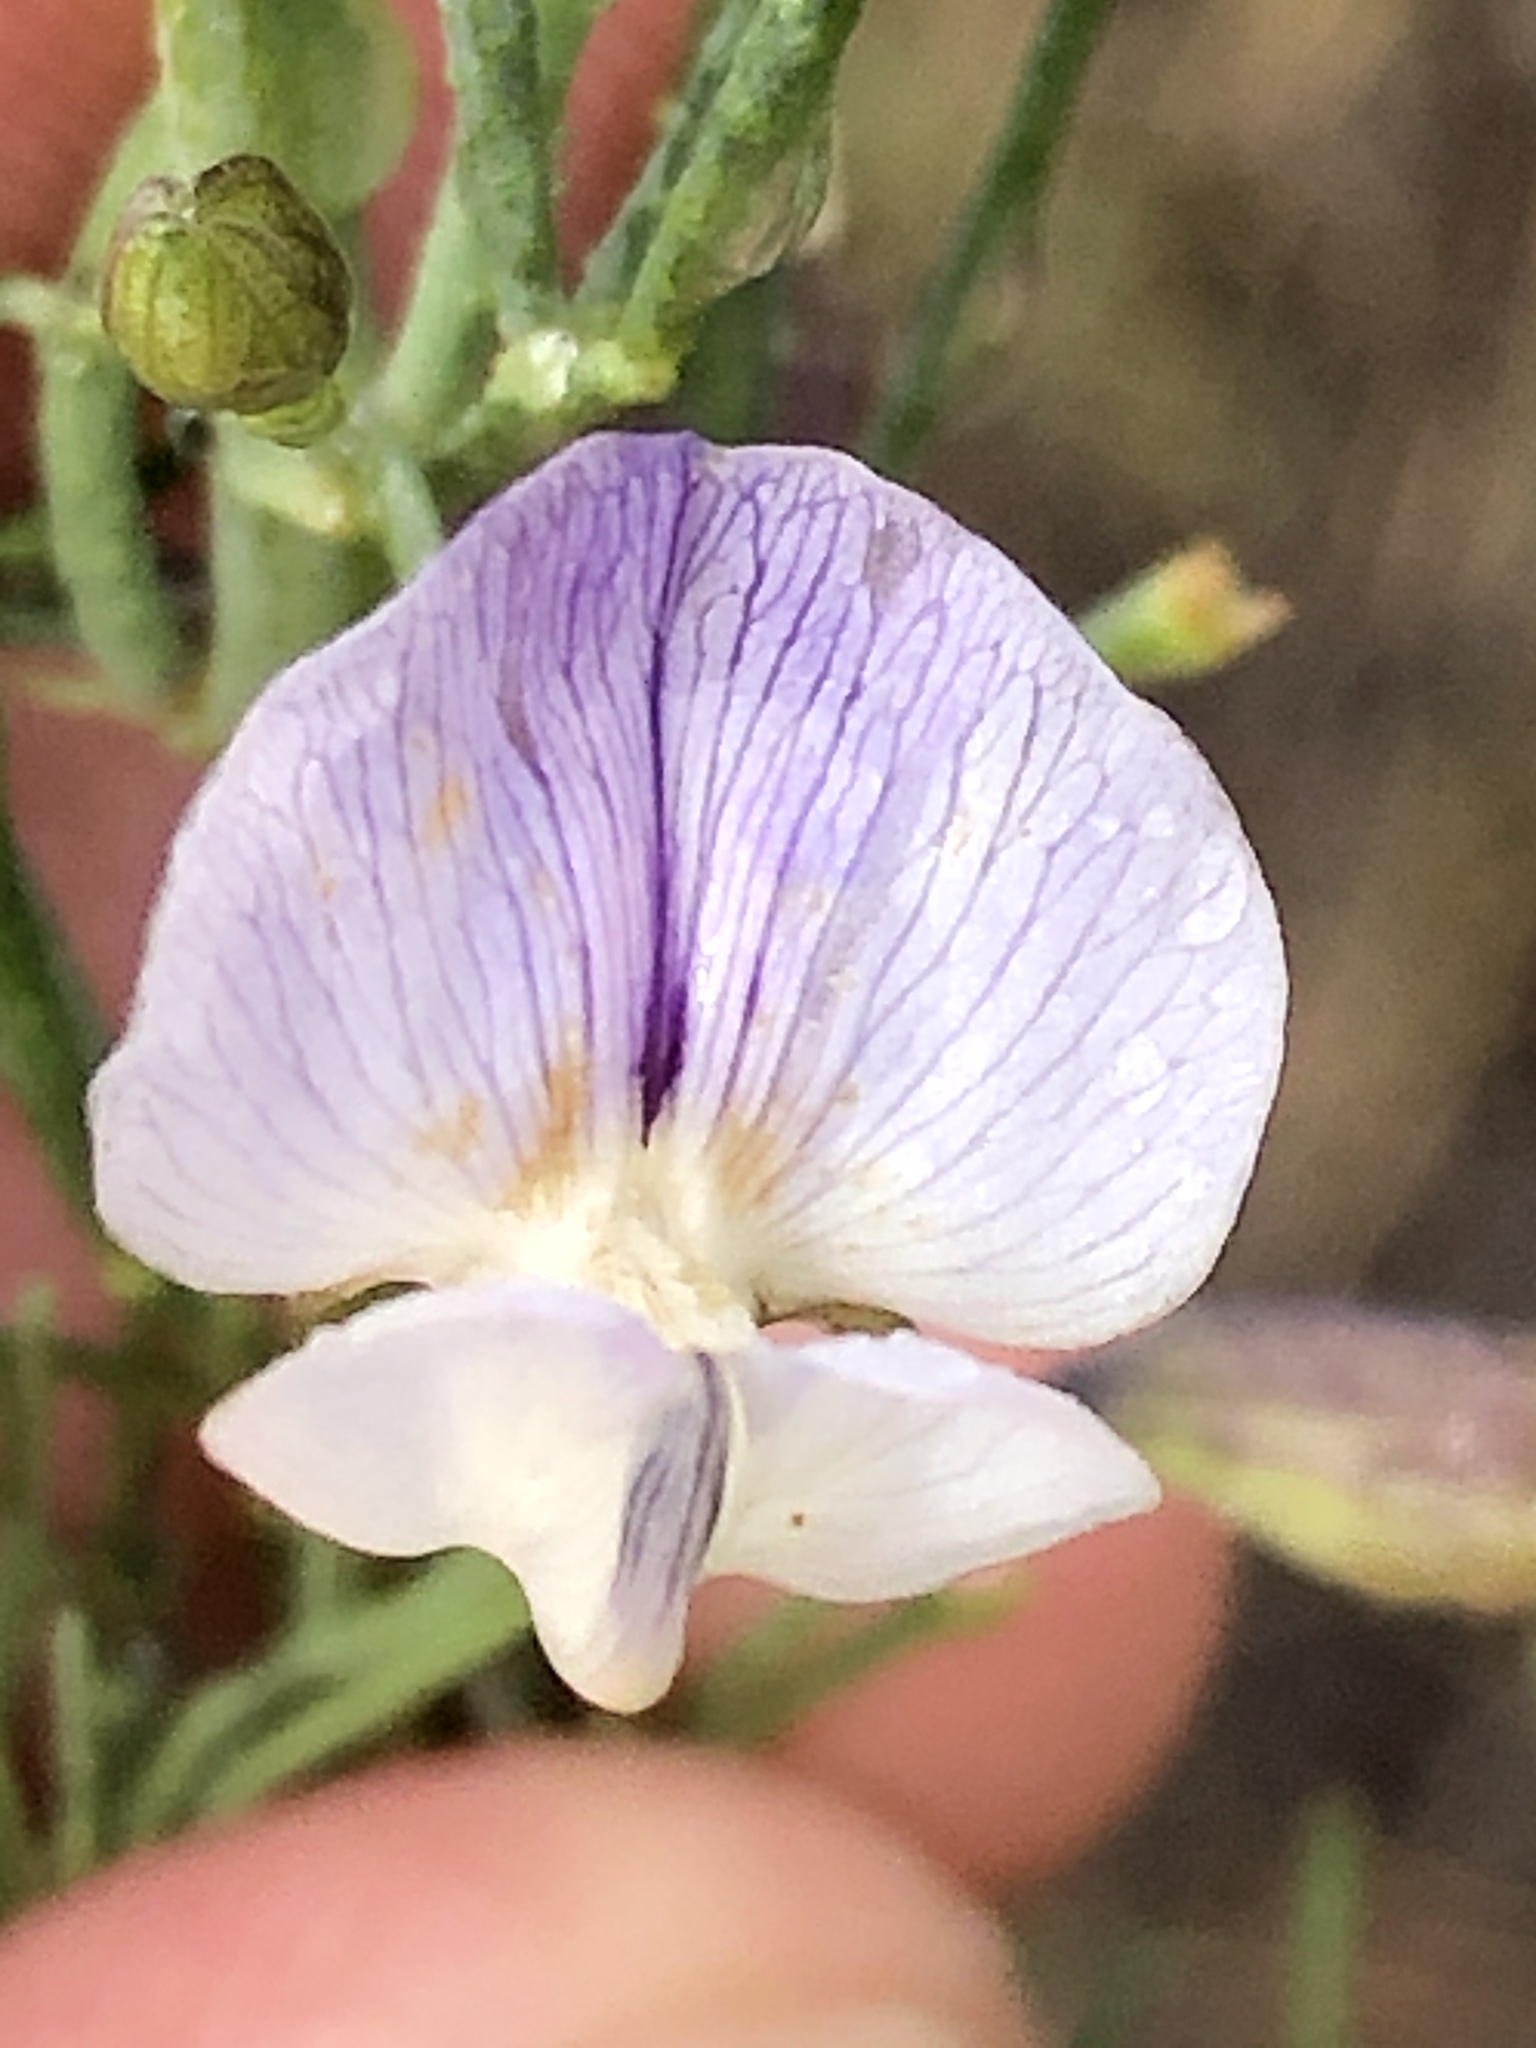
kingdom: Plantae
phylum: Tracheophyta
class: Magnoliopsida
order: Fabales
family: Fabaceae
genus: Psoralea
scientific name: Psoralea forbesiae
